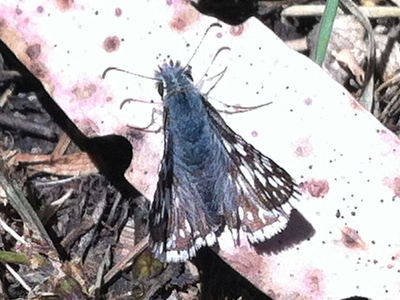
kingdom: Animalia
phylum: Arthropoda
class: Insecta
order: Lepidoptera
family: Hesperiidae
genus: Burnsius
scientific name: Burnsius communis
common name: Common checkered-skipper
